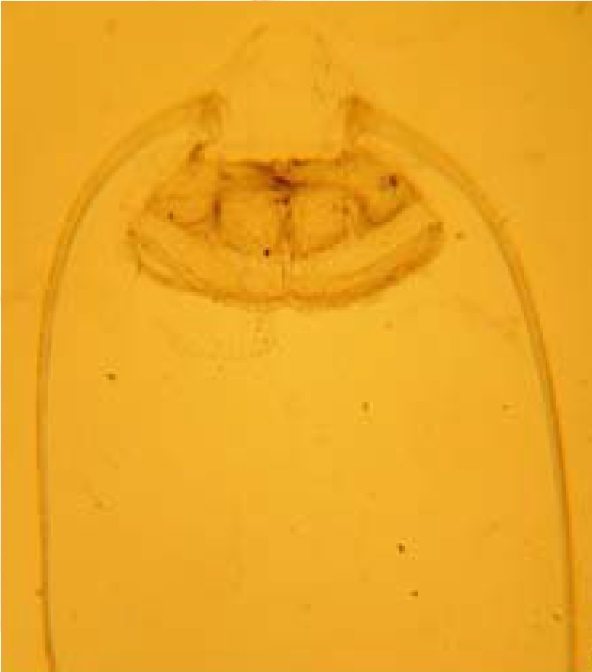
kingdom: Animalia
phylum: Cnidaria
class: Hydrozoa
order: Narcomedusae
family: Solmundaeginidae
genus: Solmundella
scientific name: Solmundella bitentaculata
